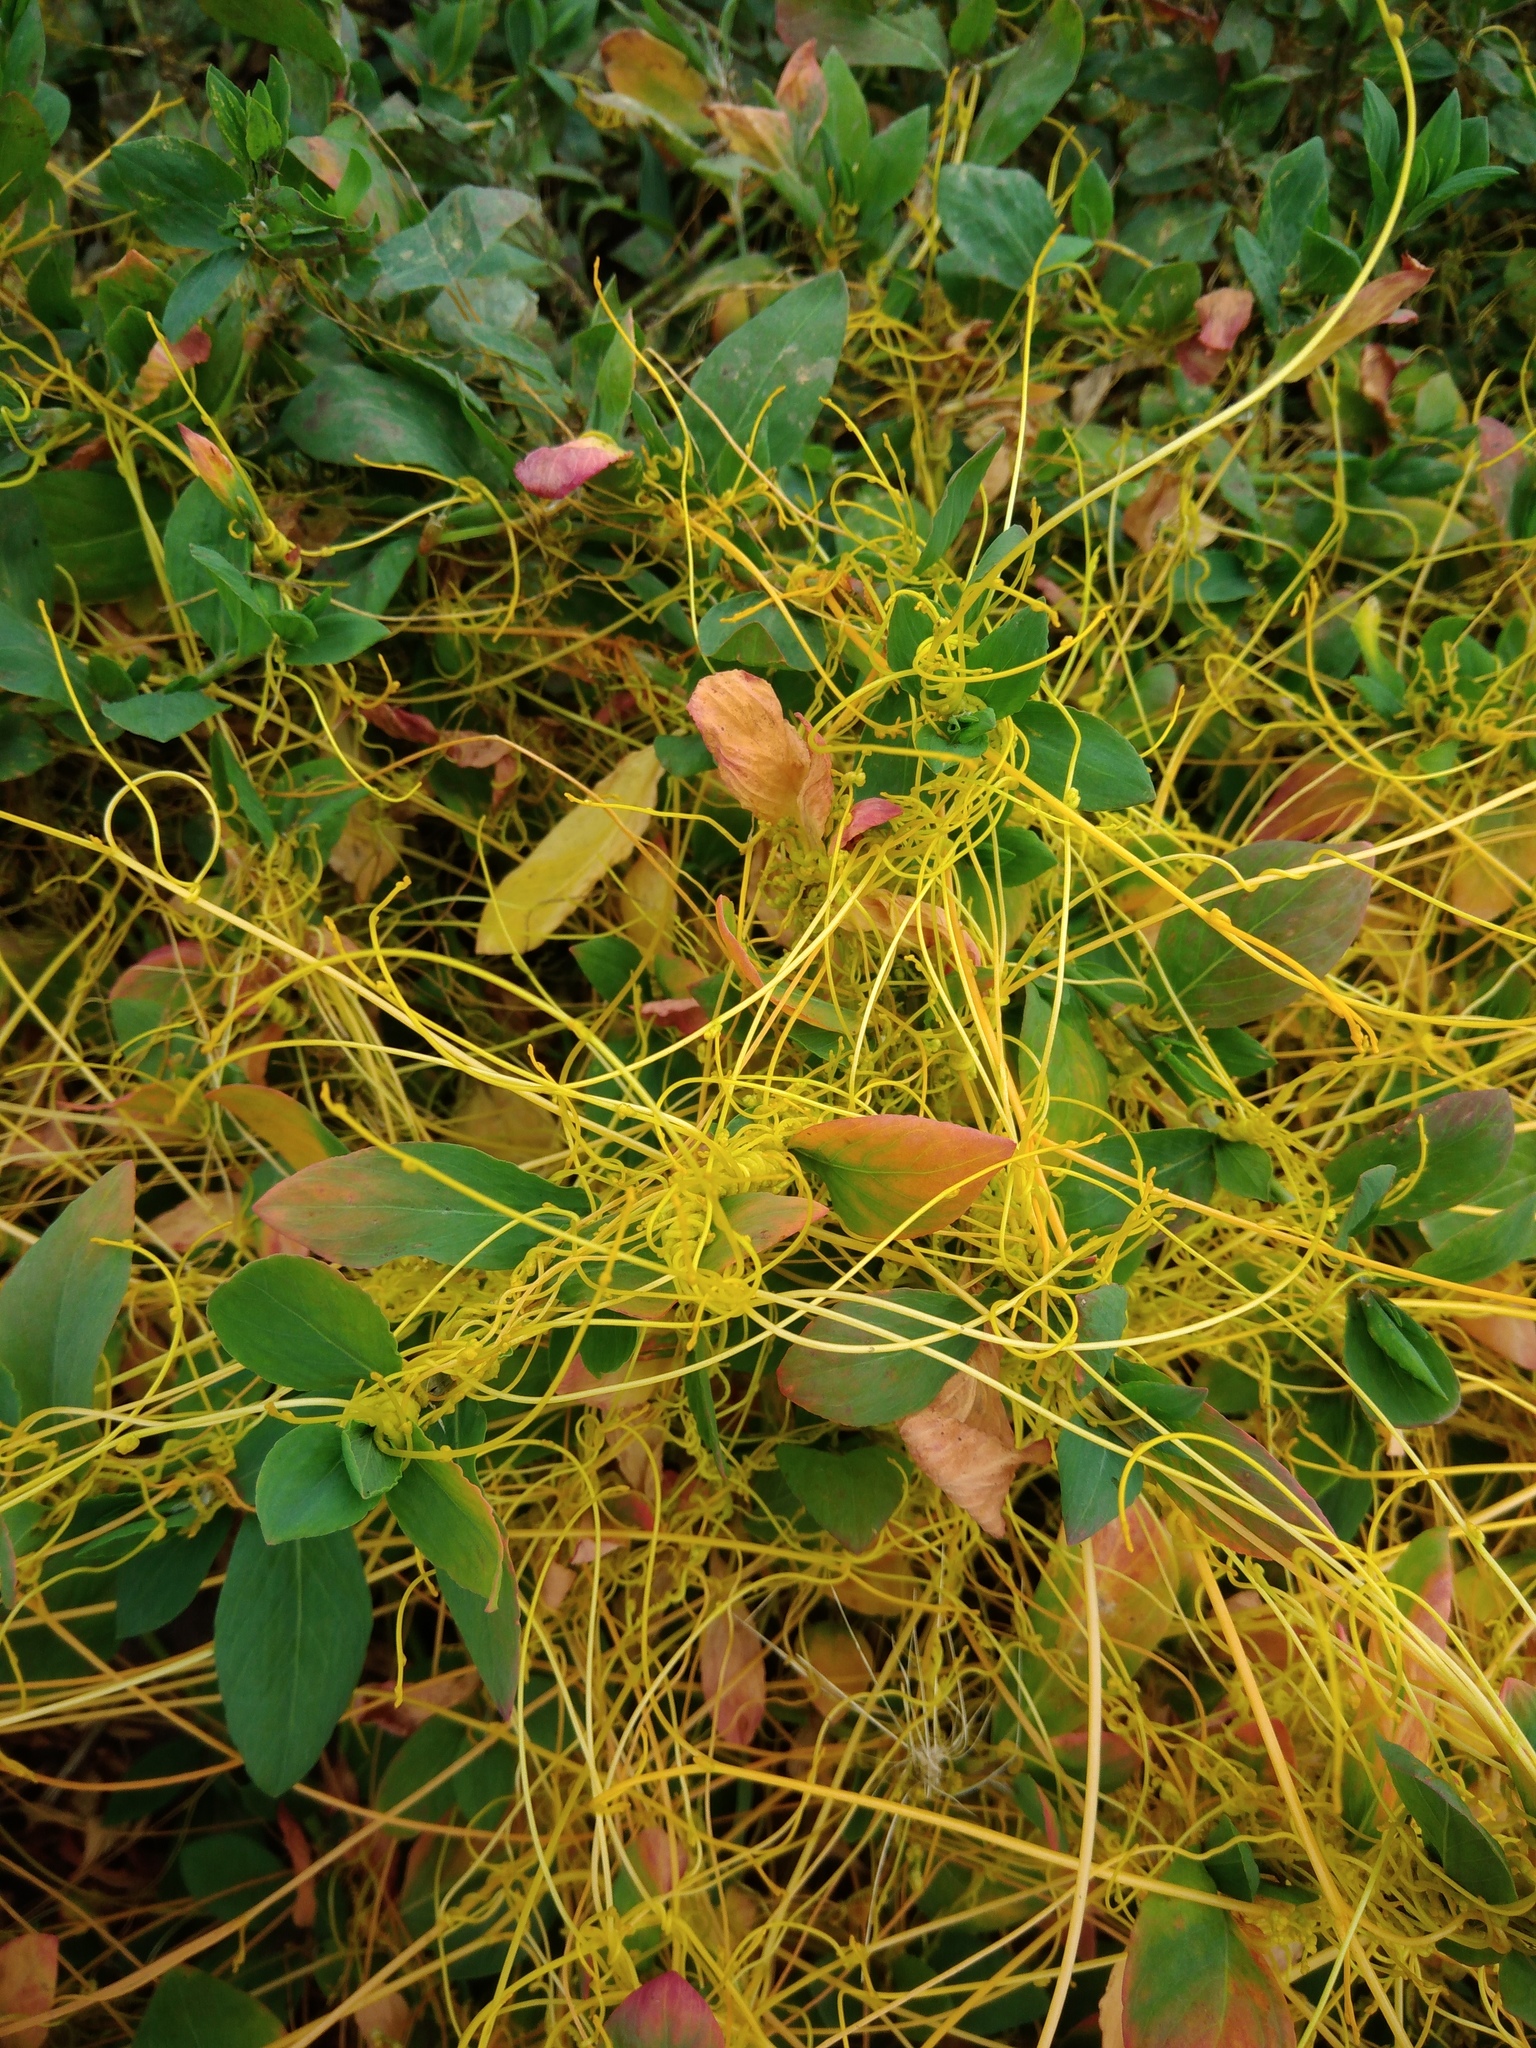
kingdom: Plantae
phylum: Tracheophyta
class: Magnoliopsida
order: Solanales
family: Convolvulaceae
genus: Cuscuta
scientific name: Cuscuta australis
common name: Australian dodder
